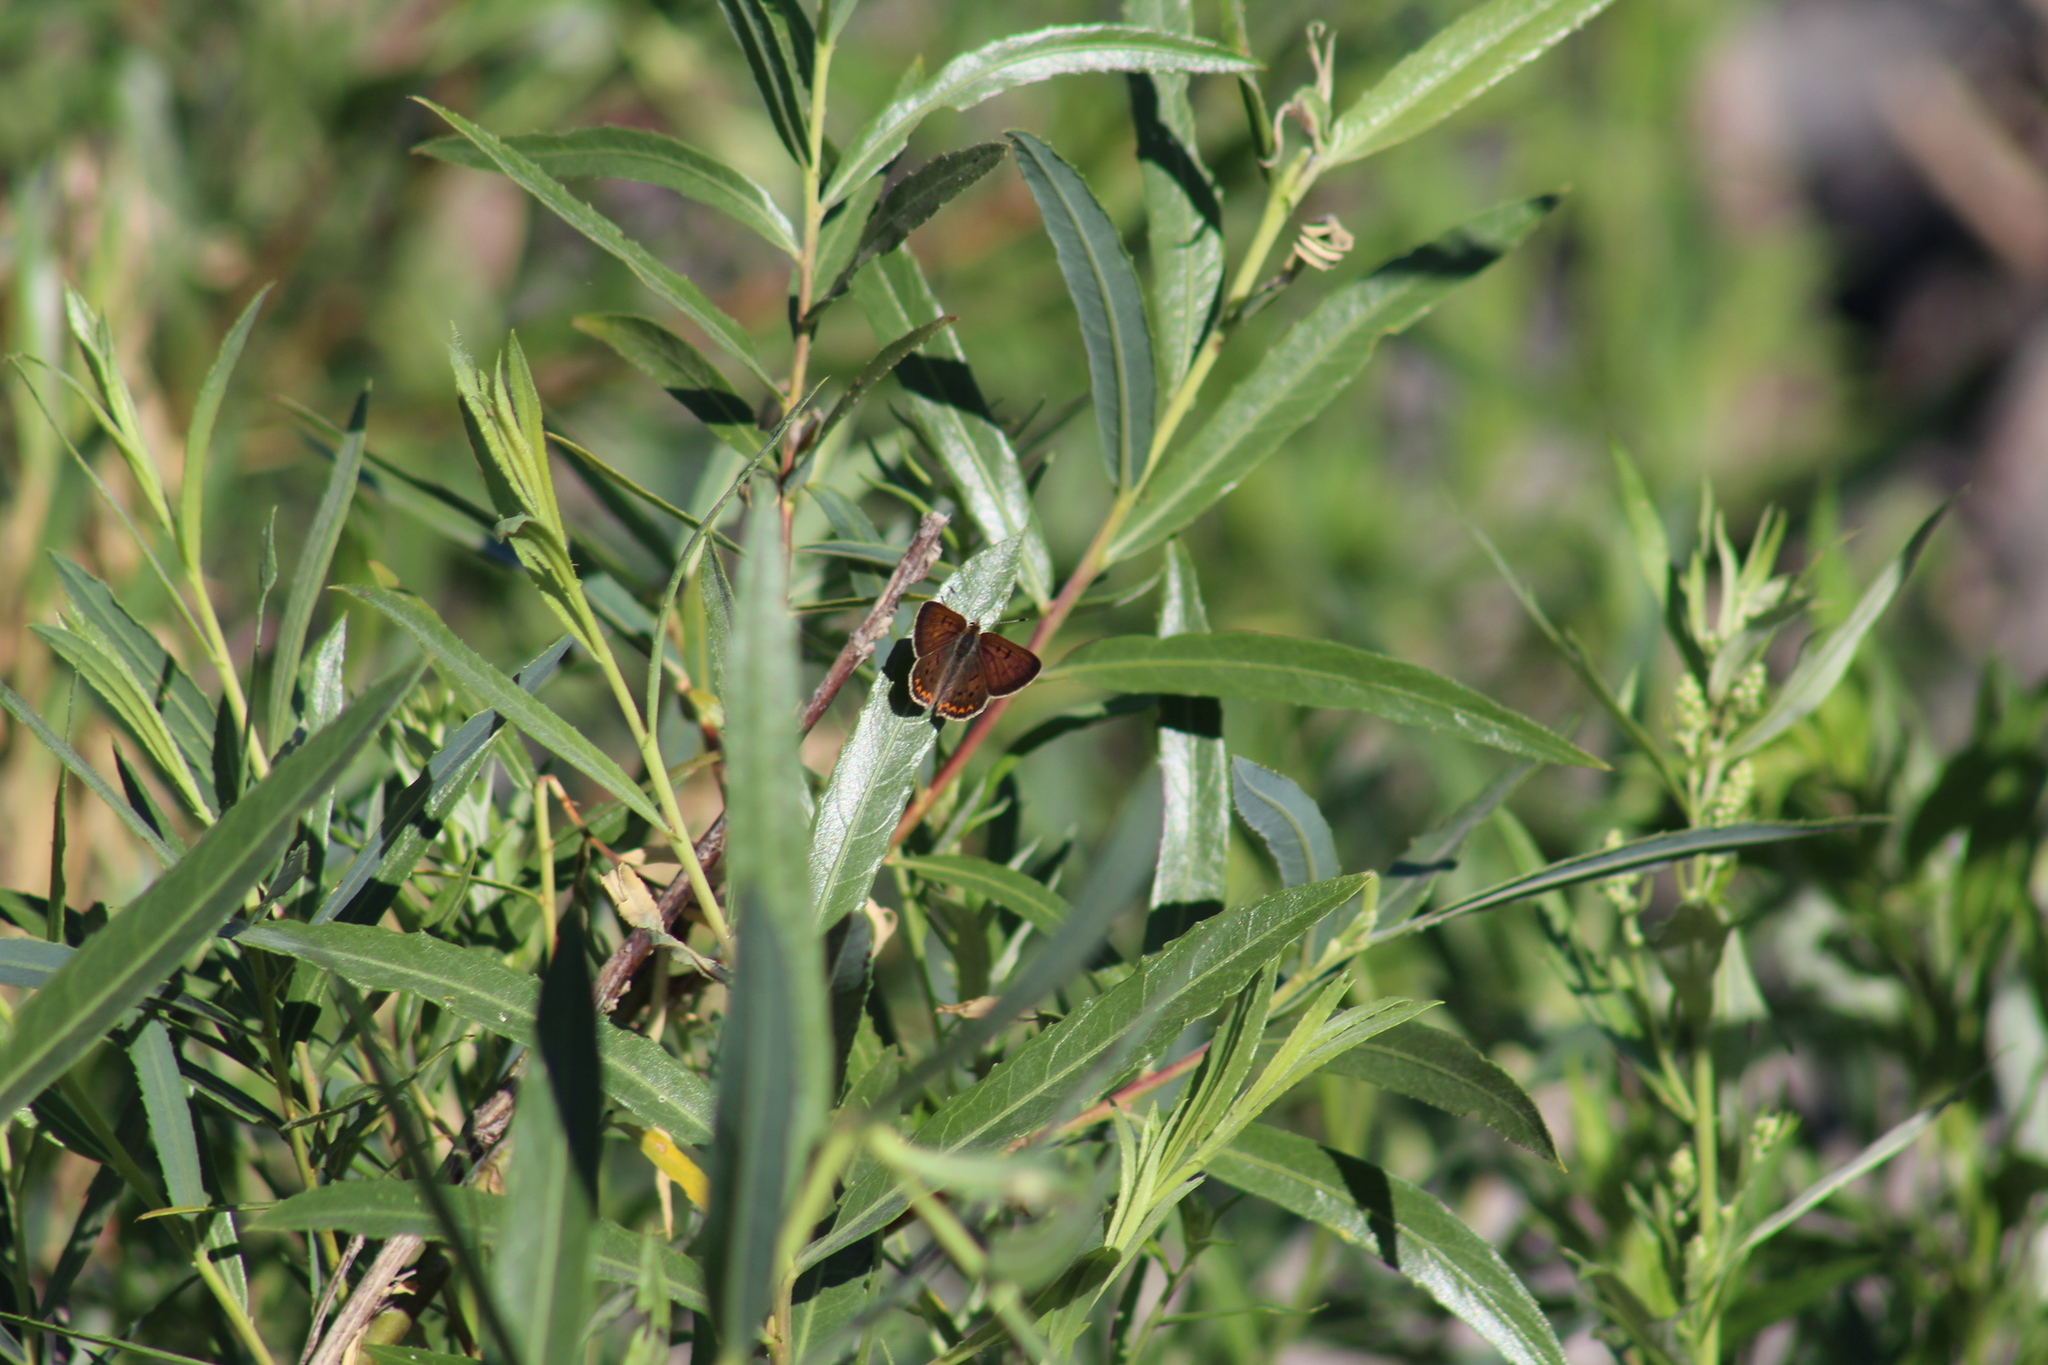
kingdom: Animalia
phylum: Arthropoda
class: Insecta
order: Lepidoptera
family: Lycaenidae
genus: Tharsalea
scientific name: Tharsalea helloides
